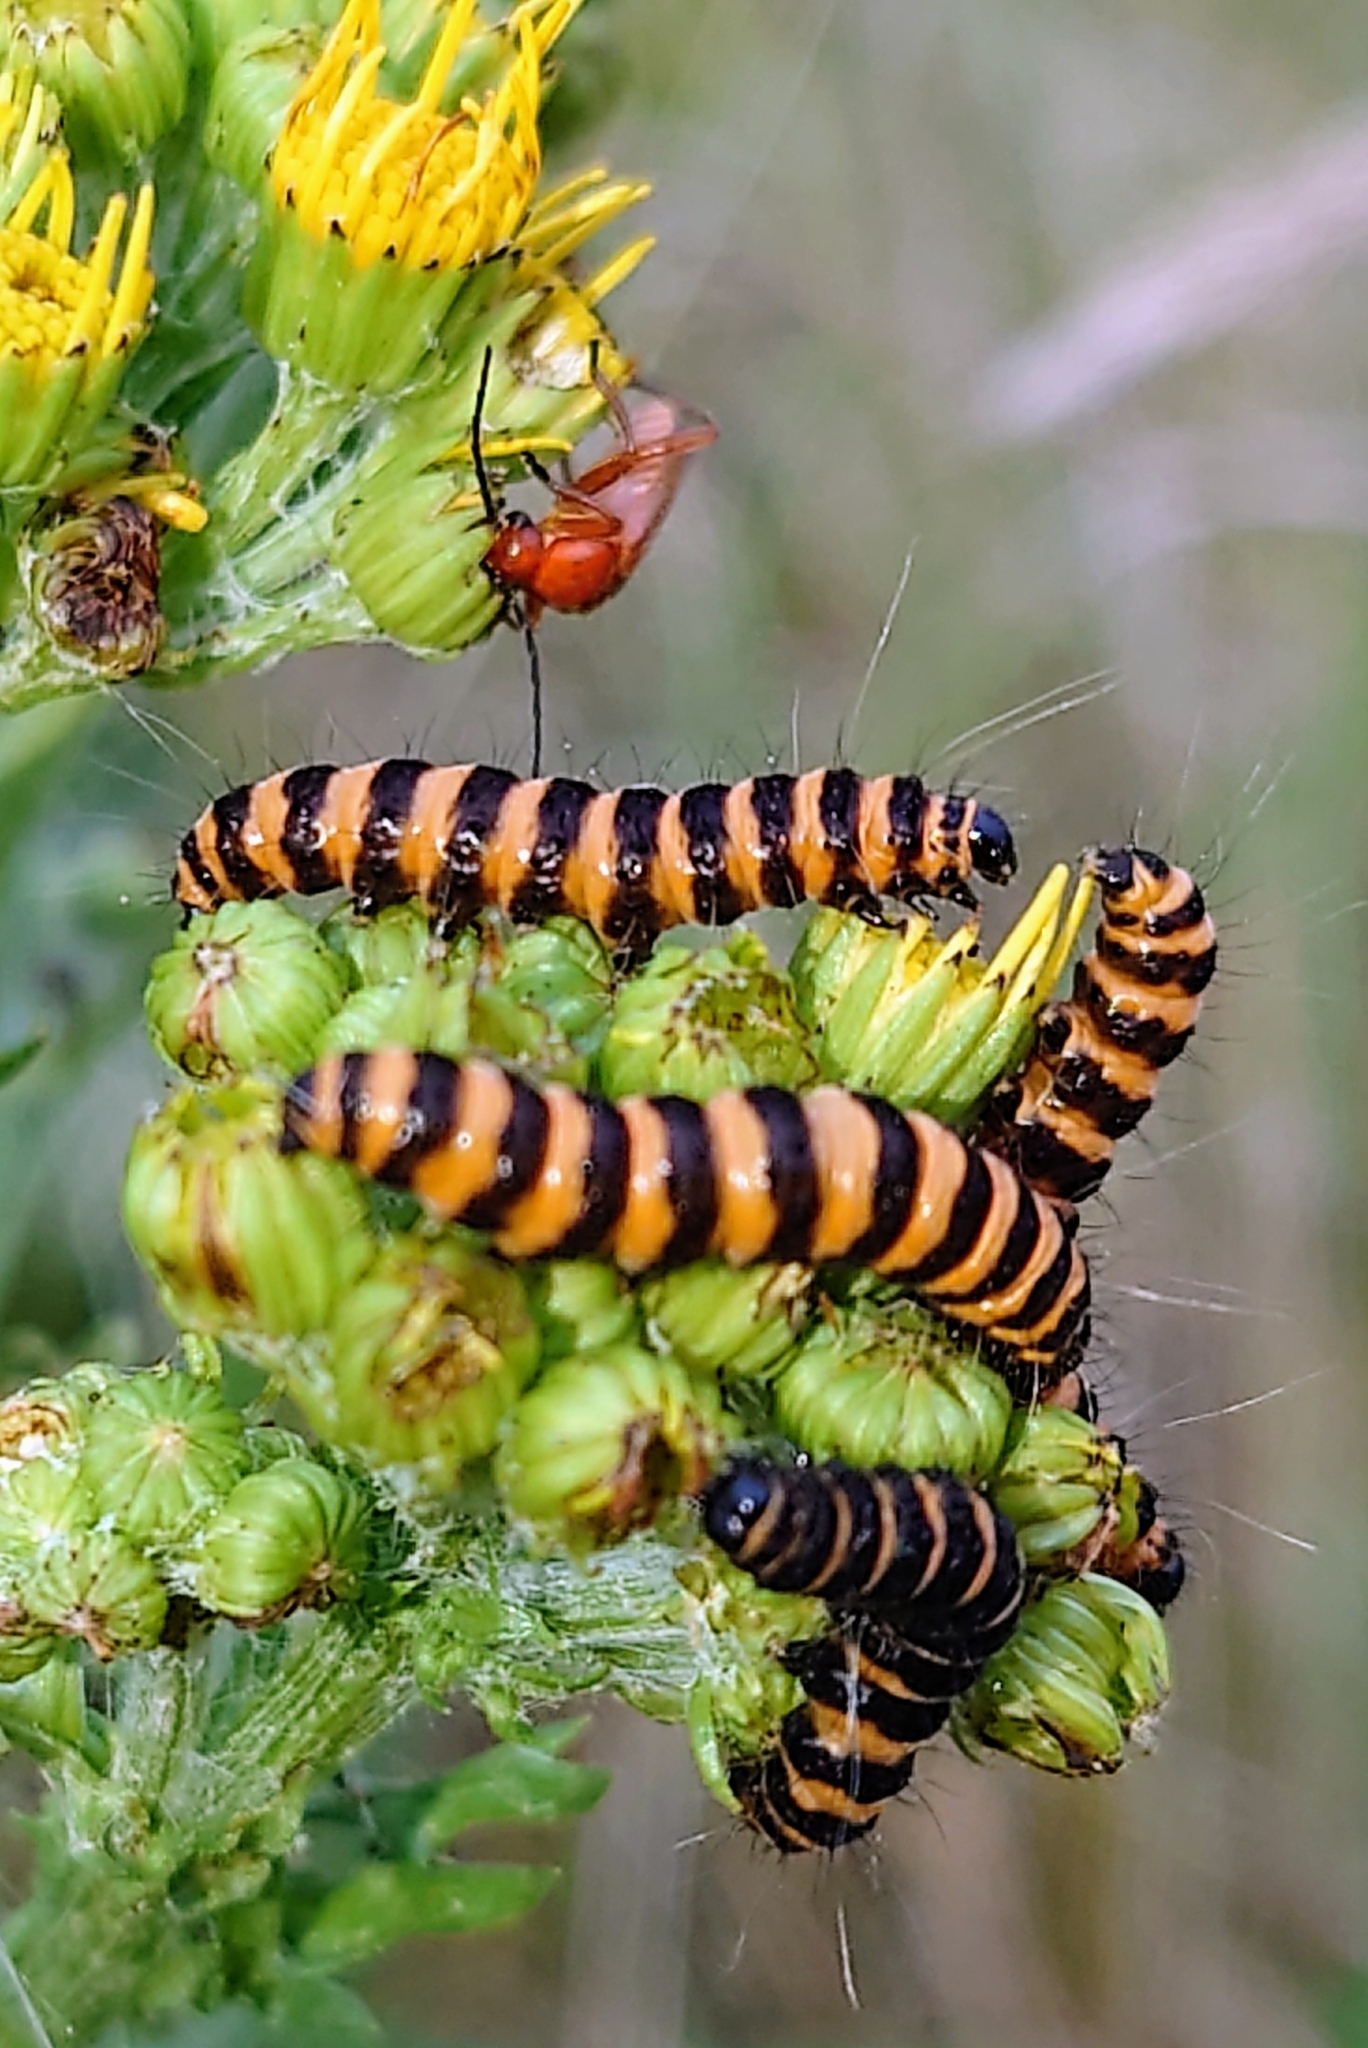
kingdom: Animalia
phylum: Arthropoda
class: Insecta
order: Lepidoptera
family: Erebidae
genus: Tyria
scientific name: Tyria jacobaeae
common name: Cinnabar
